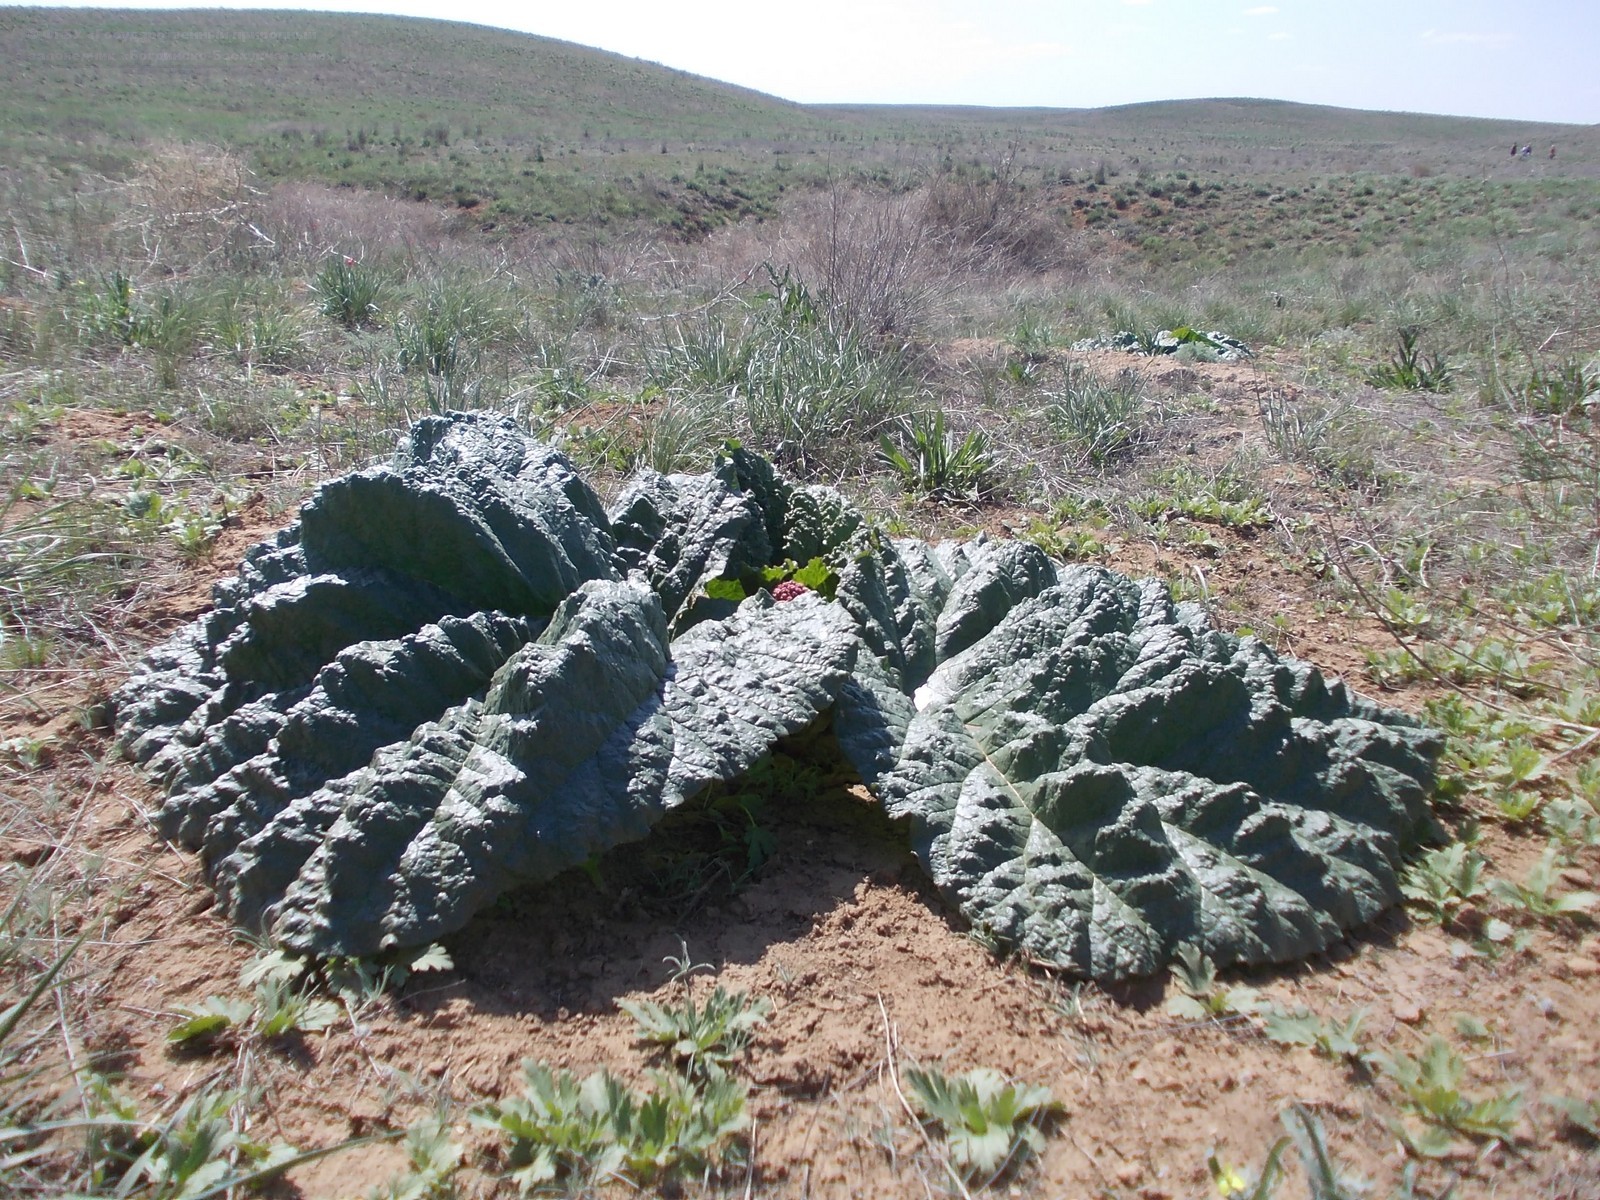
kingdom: Plantae
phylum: Tracheophyta
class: Magnoliopsida
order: Caryophyllales
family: Polygonaceae
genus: Rheum
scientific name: Rheum tataricum
